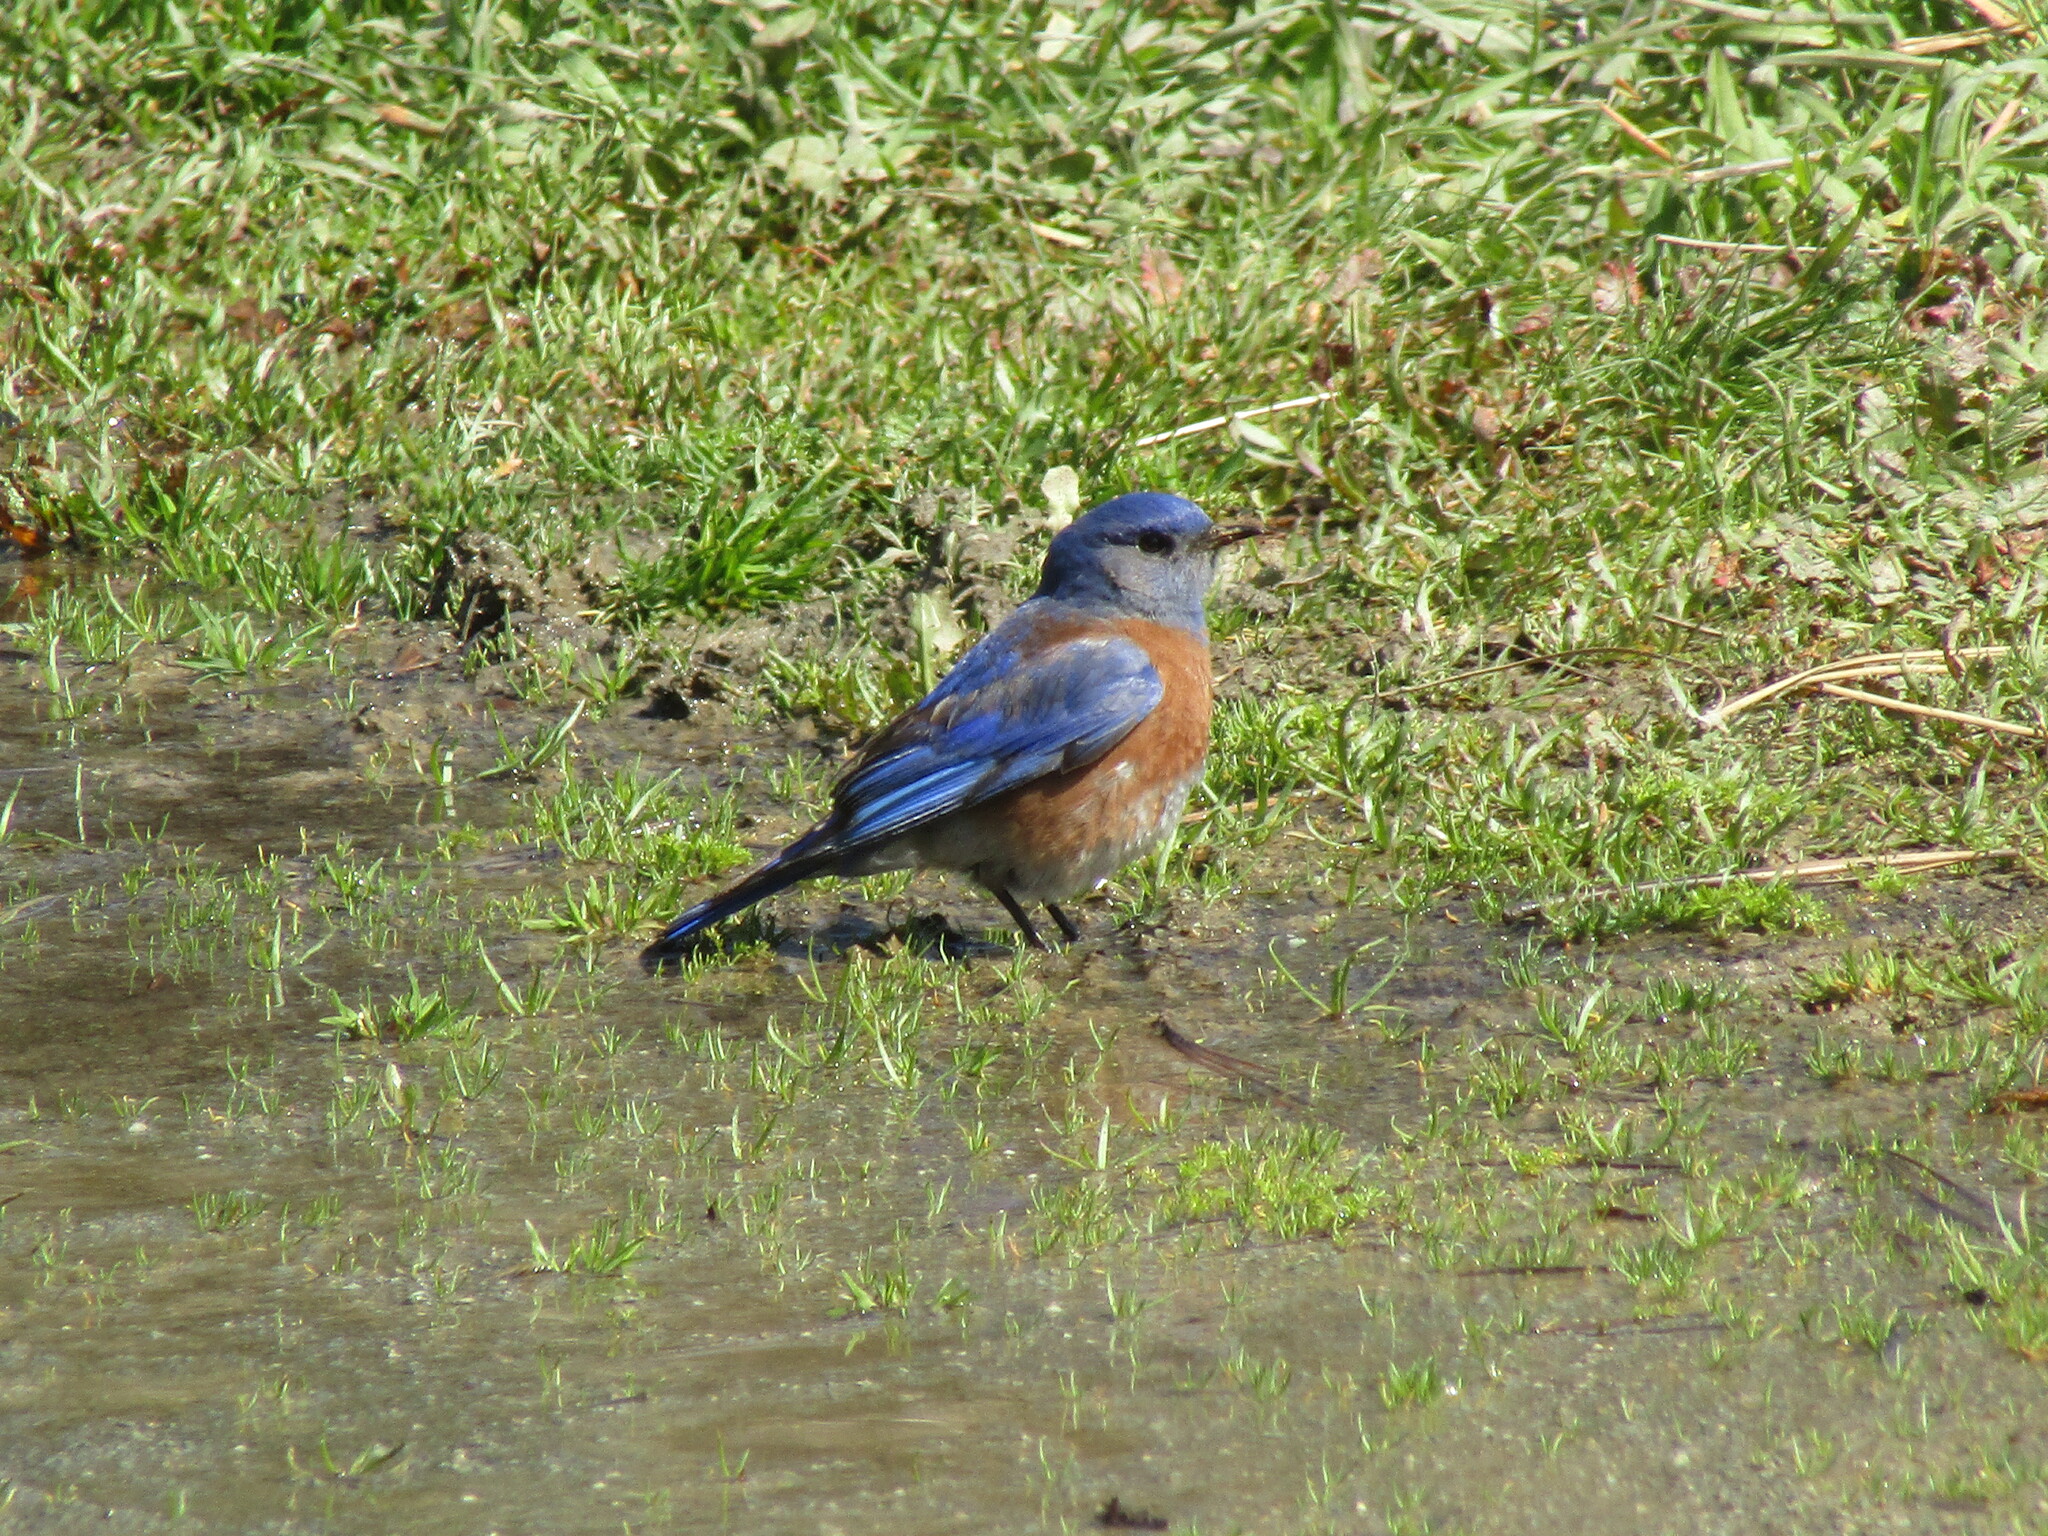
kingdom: Animalia
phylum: Chordata
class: Aves
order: Passeriformes
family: Turdidae
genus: Sialia
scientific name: Sialia mexicana
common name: Western bluebird
